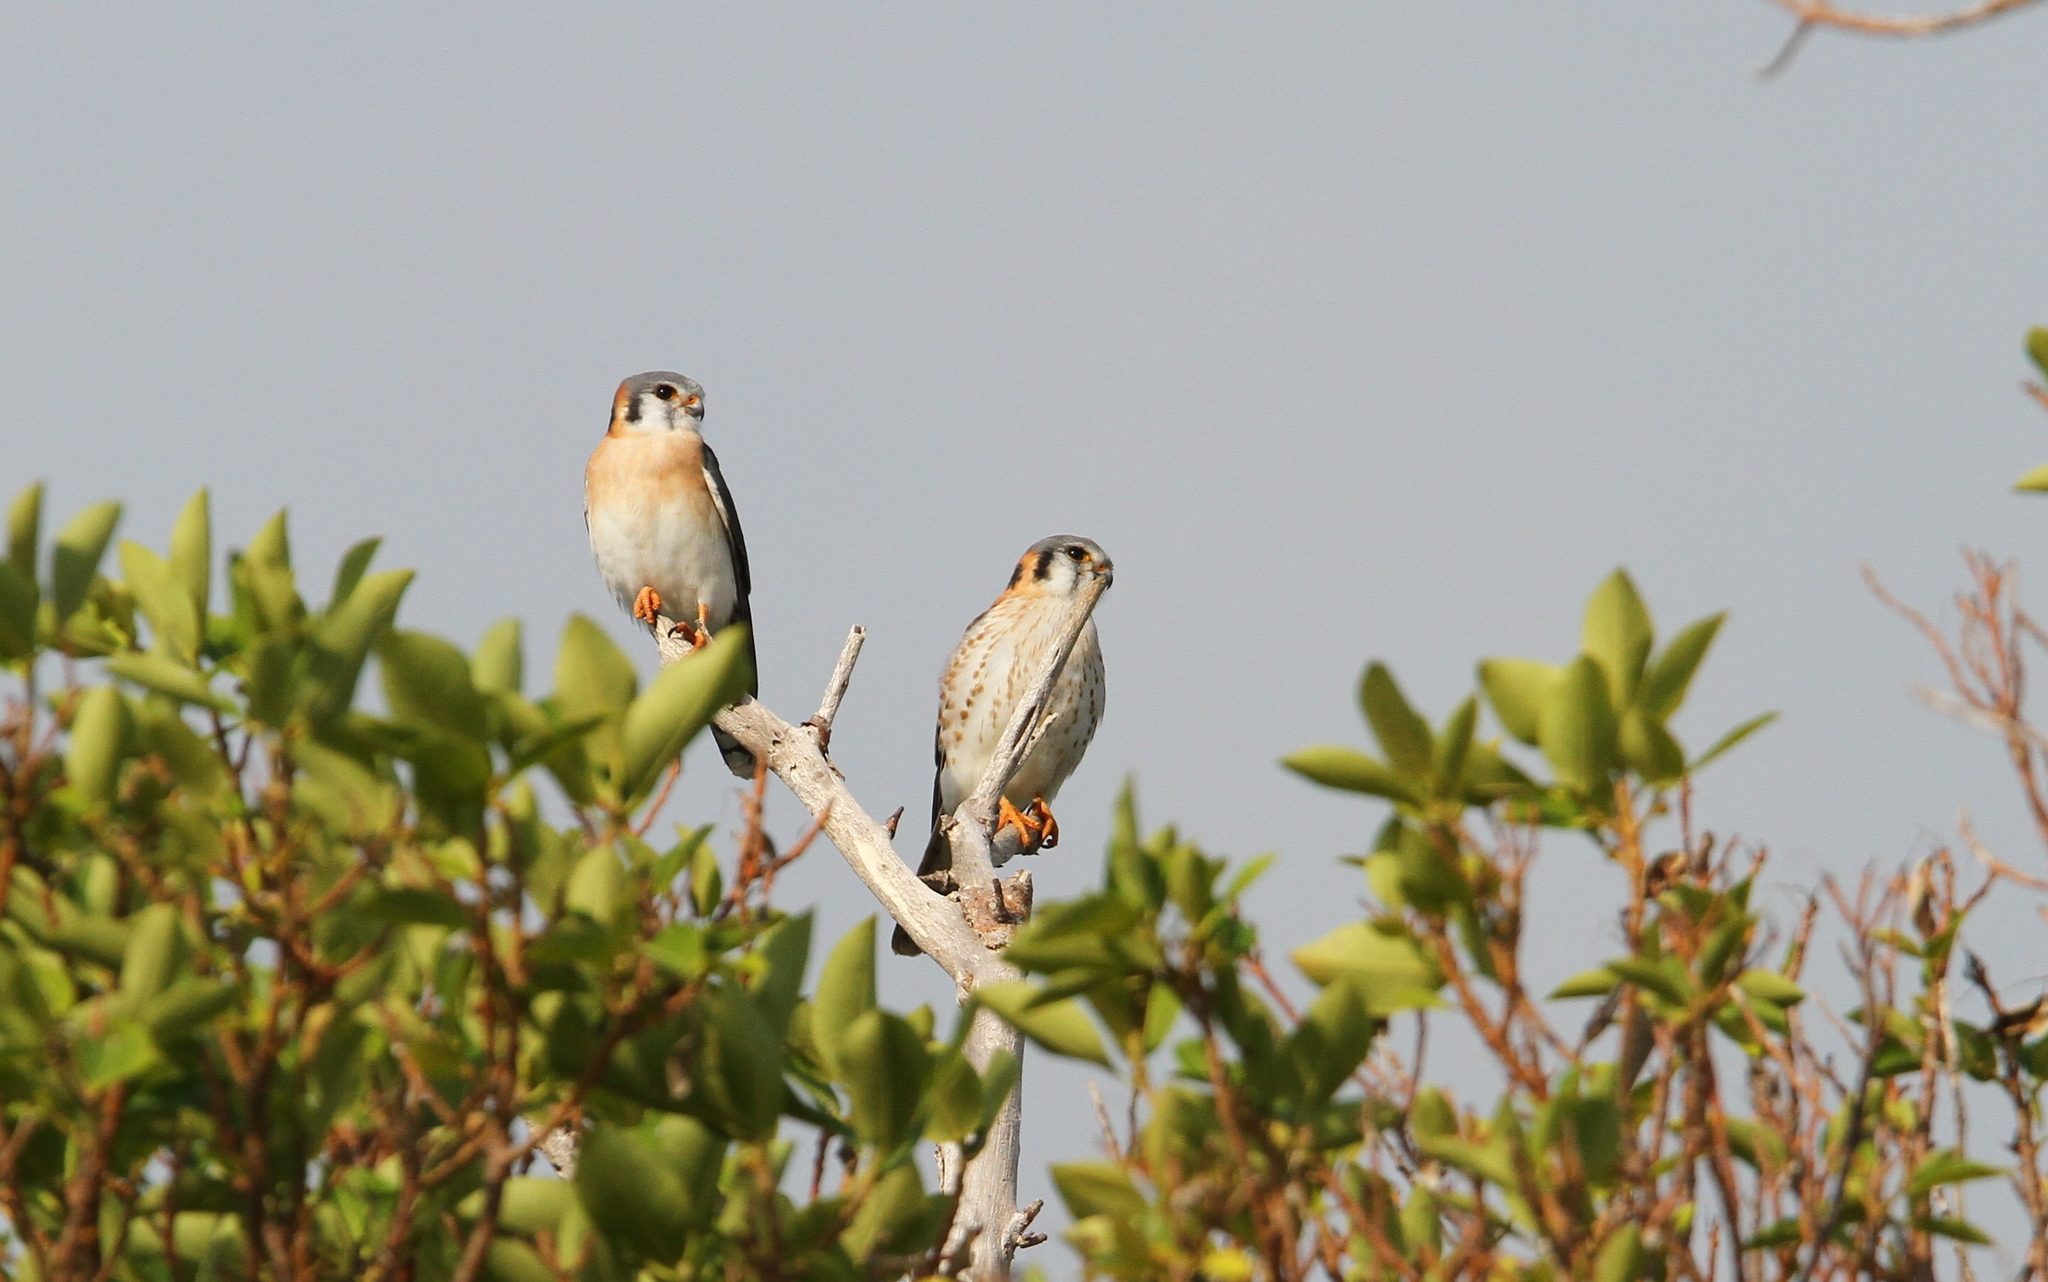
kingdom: Animalia
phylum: Chordata
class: Aves
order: Falconiformes
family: Falconidae
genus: Falco
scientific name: Falco sparverius
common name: American kestrel
